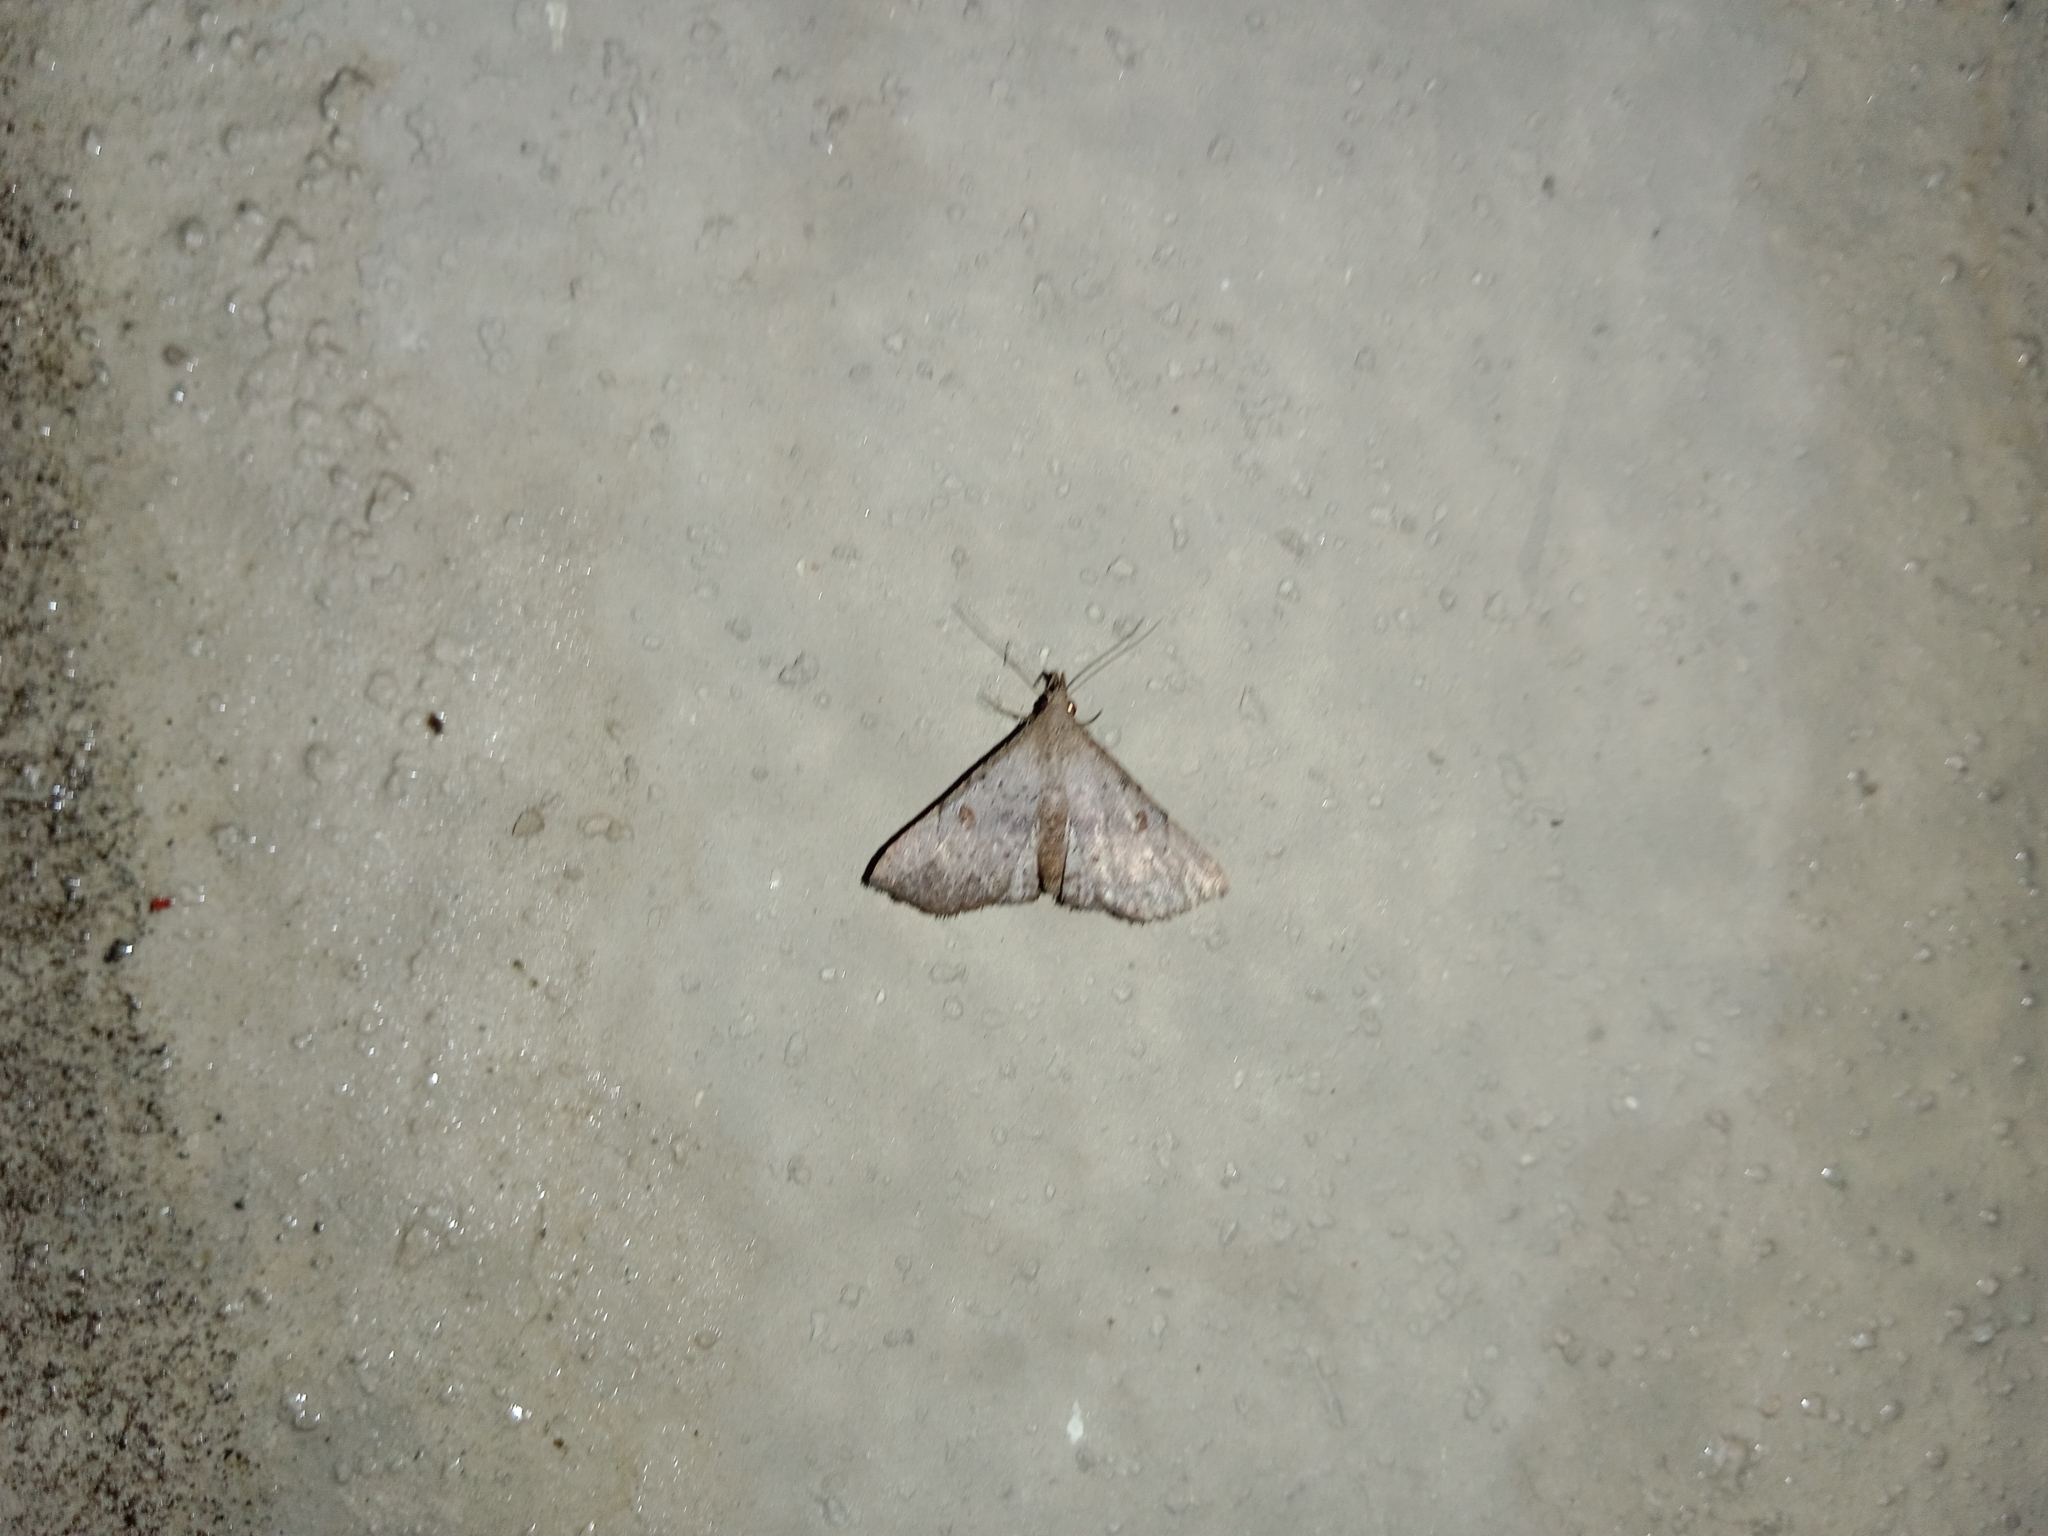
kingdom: Animalia
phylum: Arthropoda
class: Insecta
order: Lepidoptera
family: Erebidae
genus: Progonia
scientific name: Progonia oileusalis
